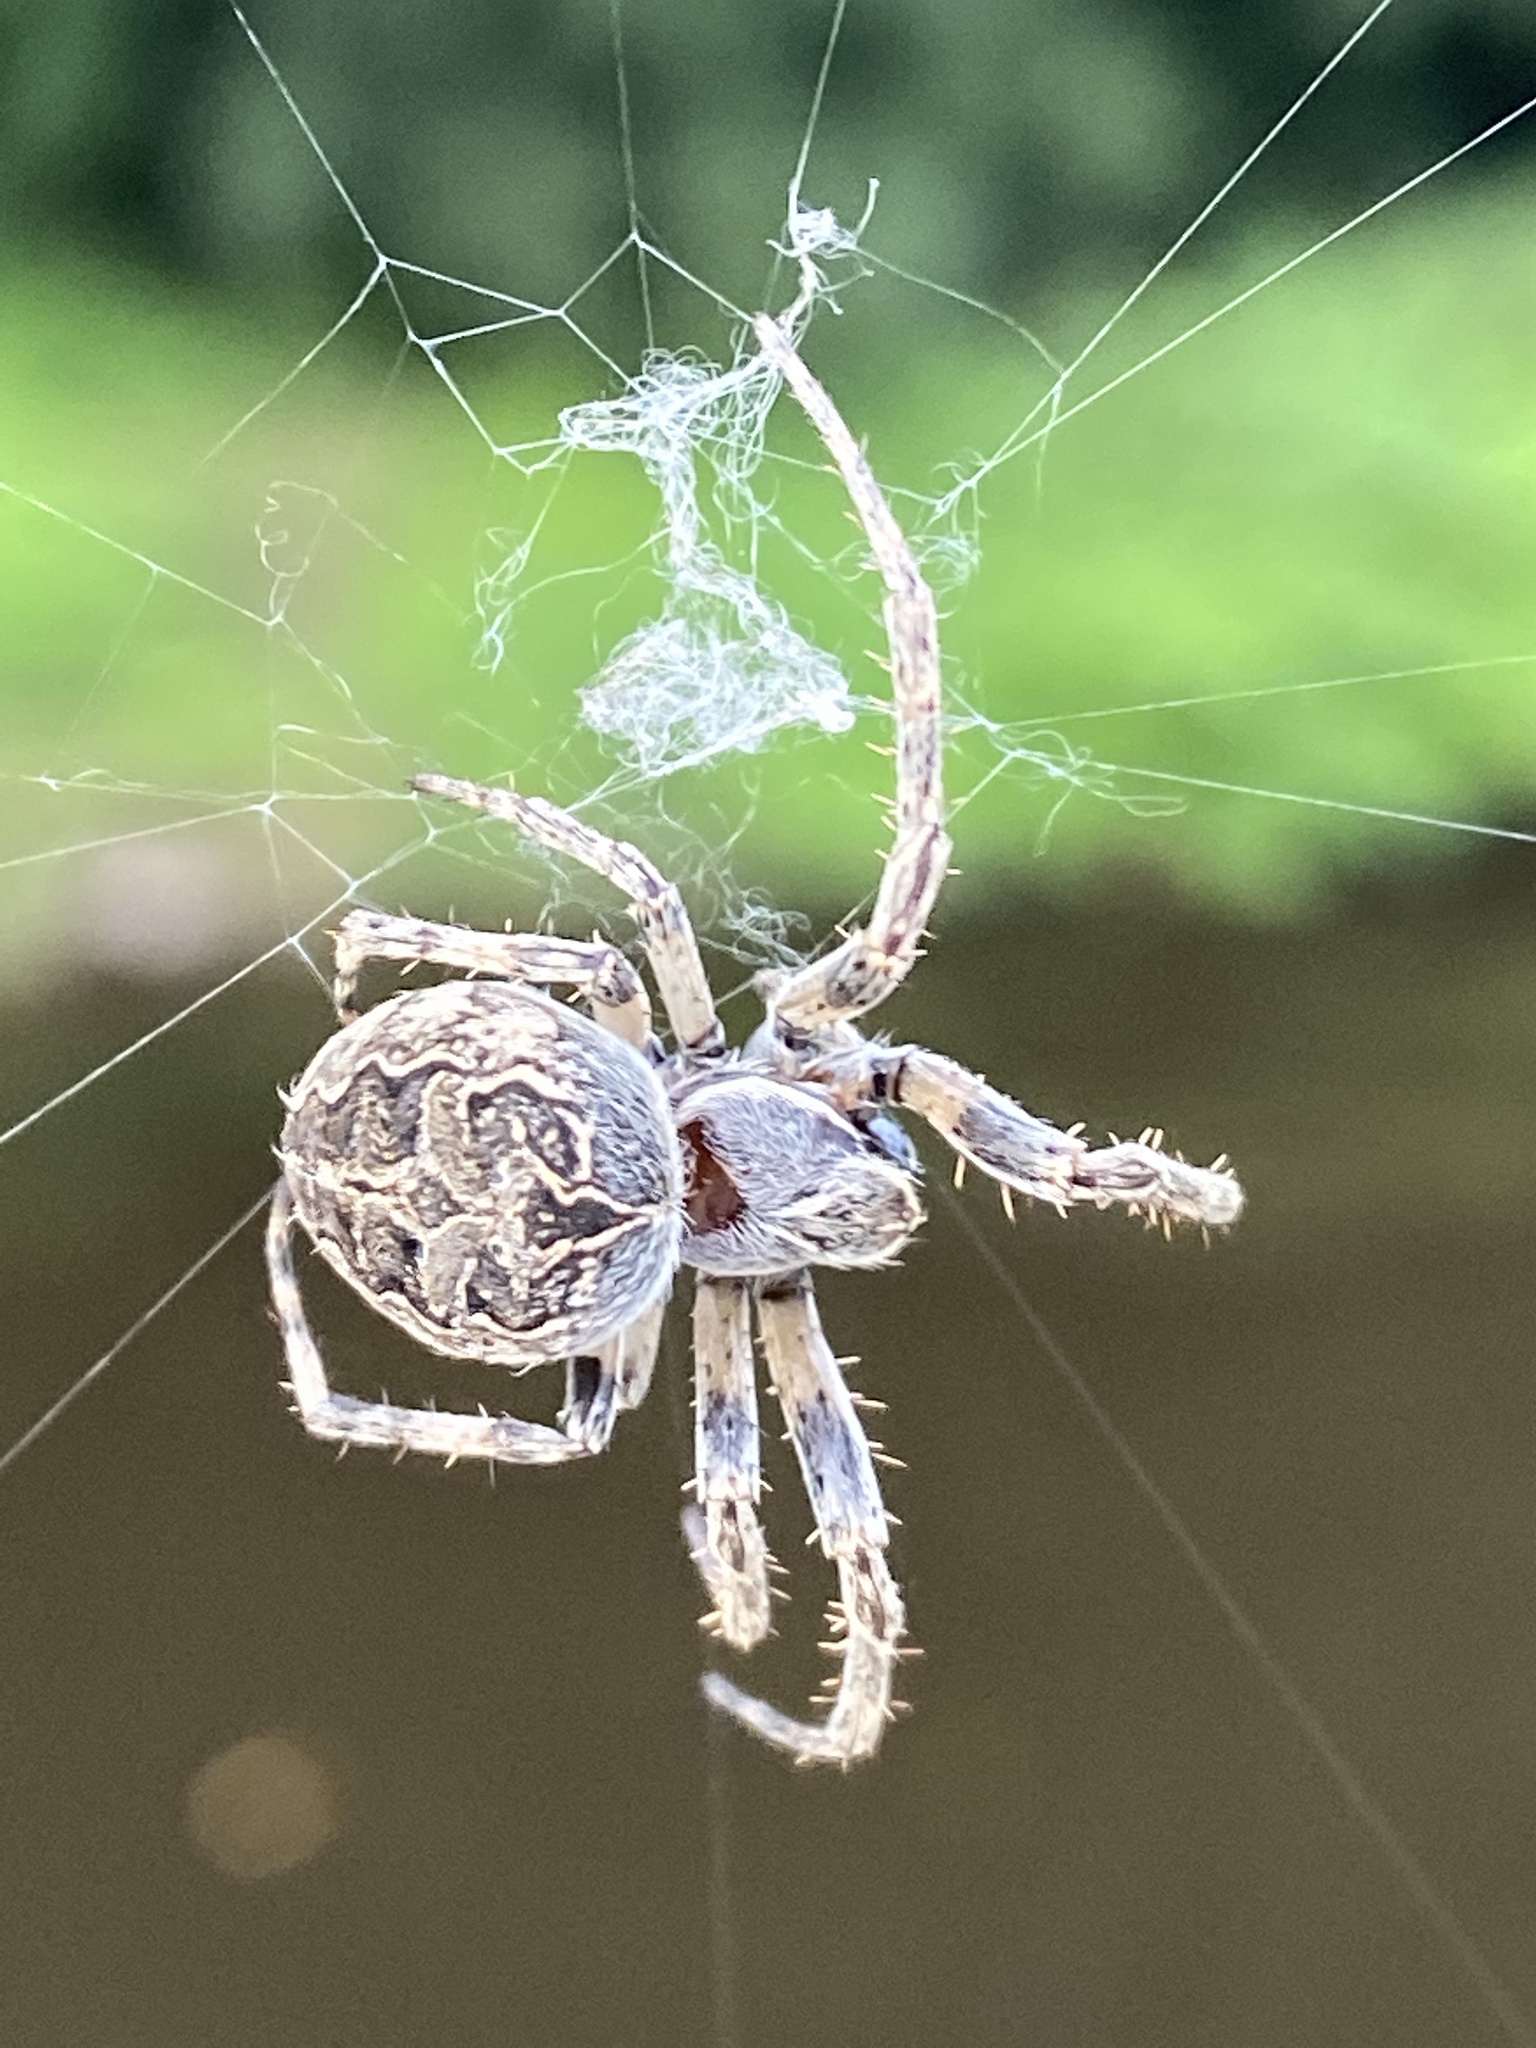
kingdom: Animalia
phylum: Arthropoda
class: Arachnida
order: Araneae
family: Araneidae
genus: Larinioides
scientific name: Larinioides sclopetarius
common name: Bridge orbweaver
